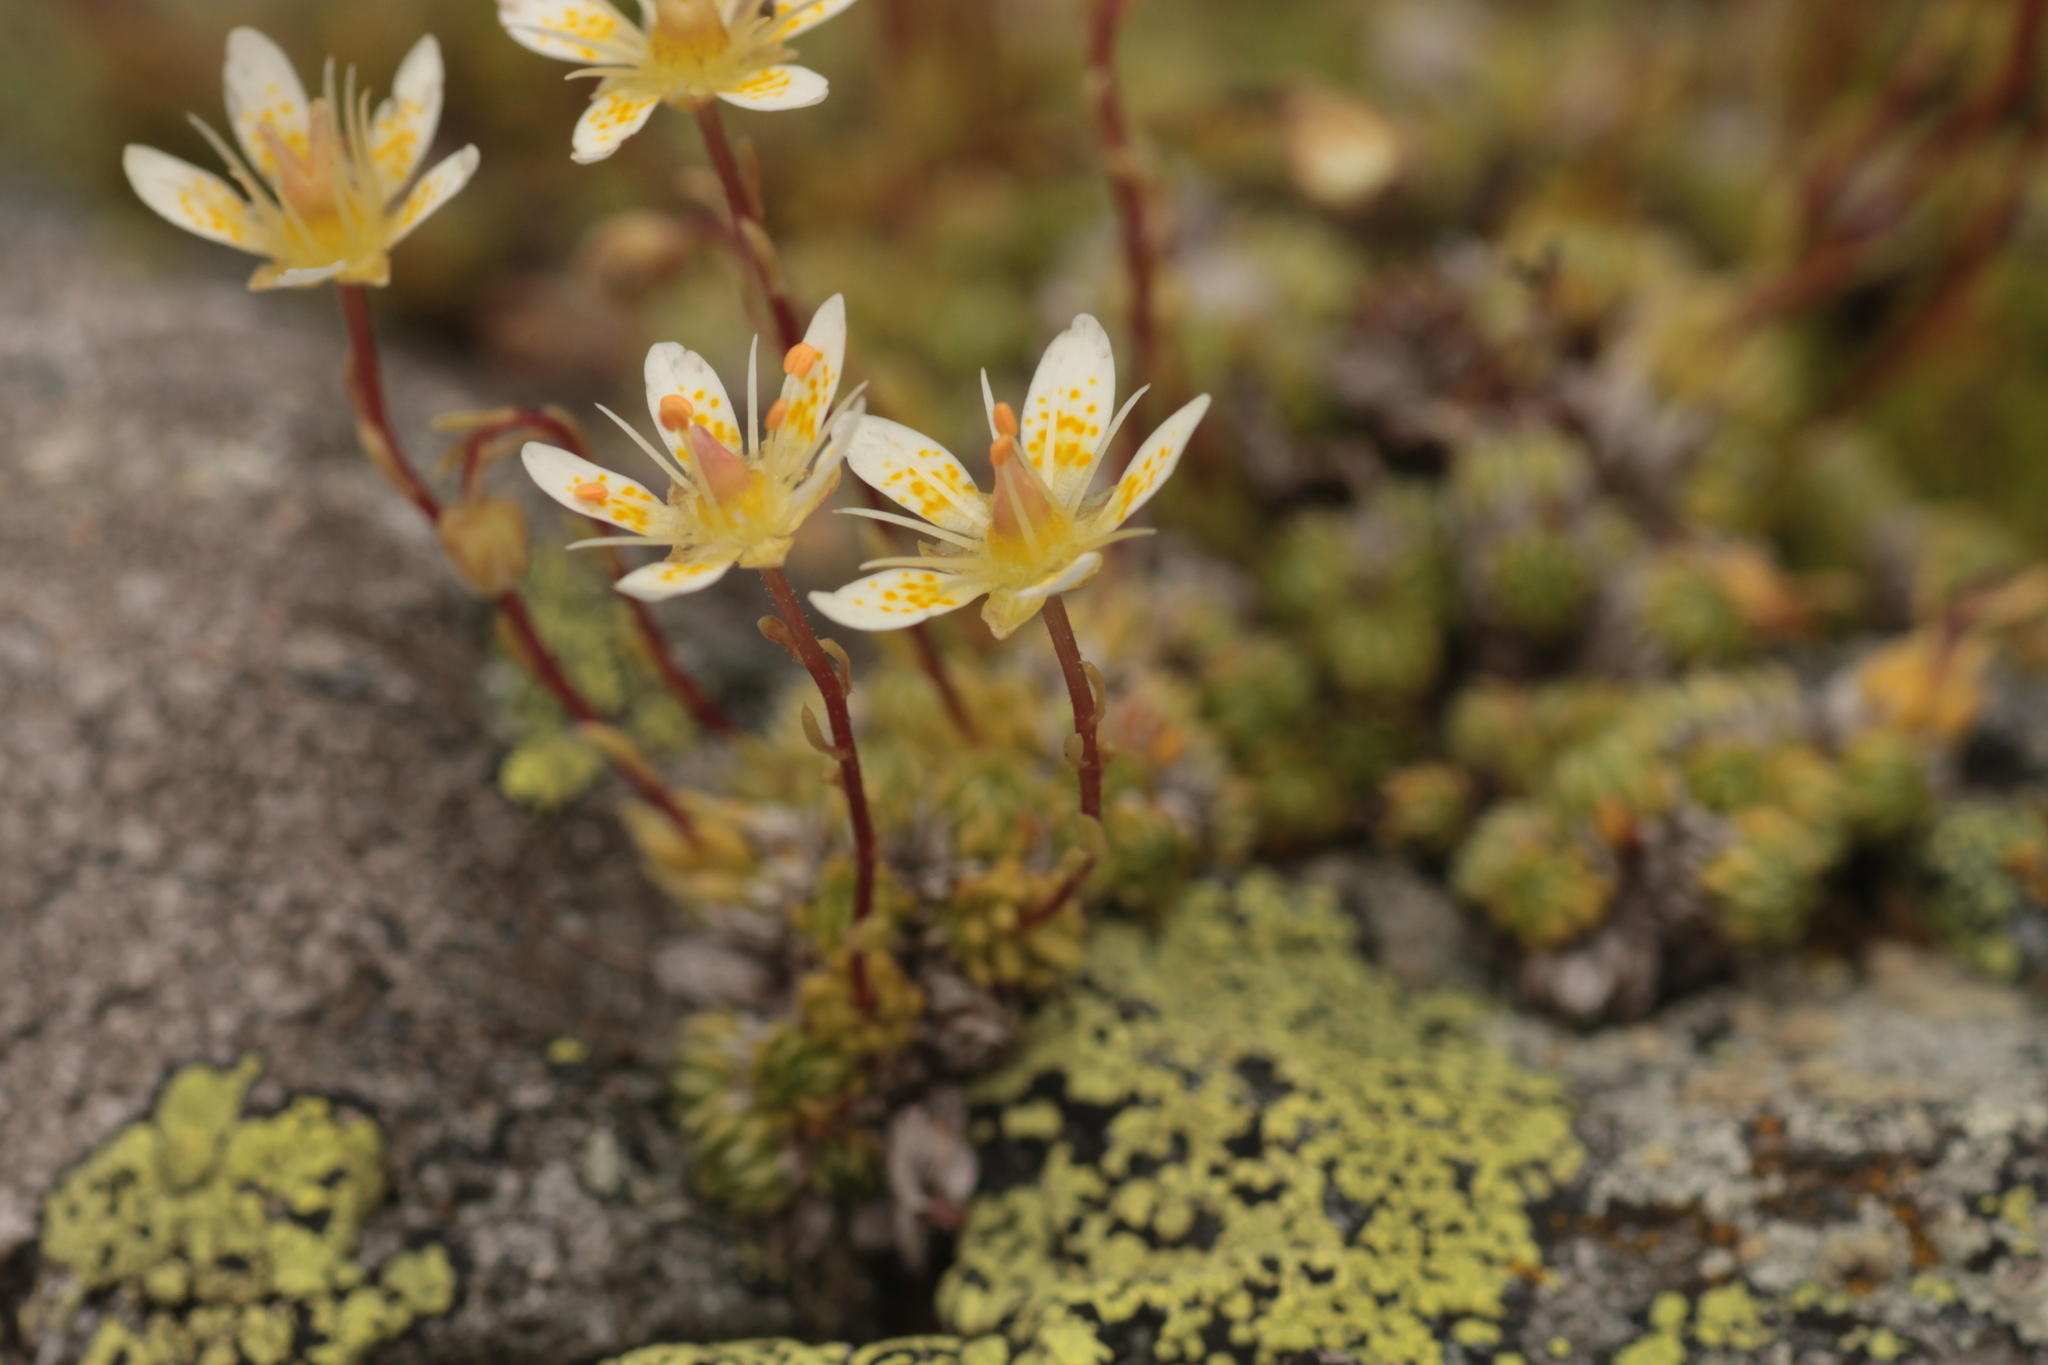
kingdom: Plantae
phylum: Tracheophyta
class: Magnoliopsida
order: Saxifragales
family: Saxifragaceae
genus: Saxifraga
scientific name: Saxifraga bryoides
